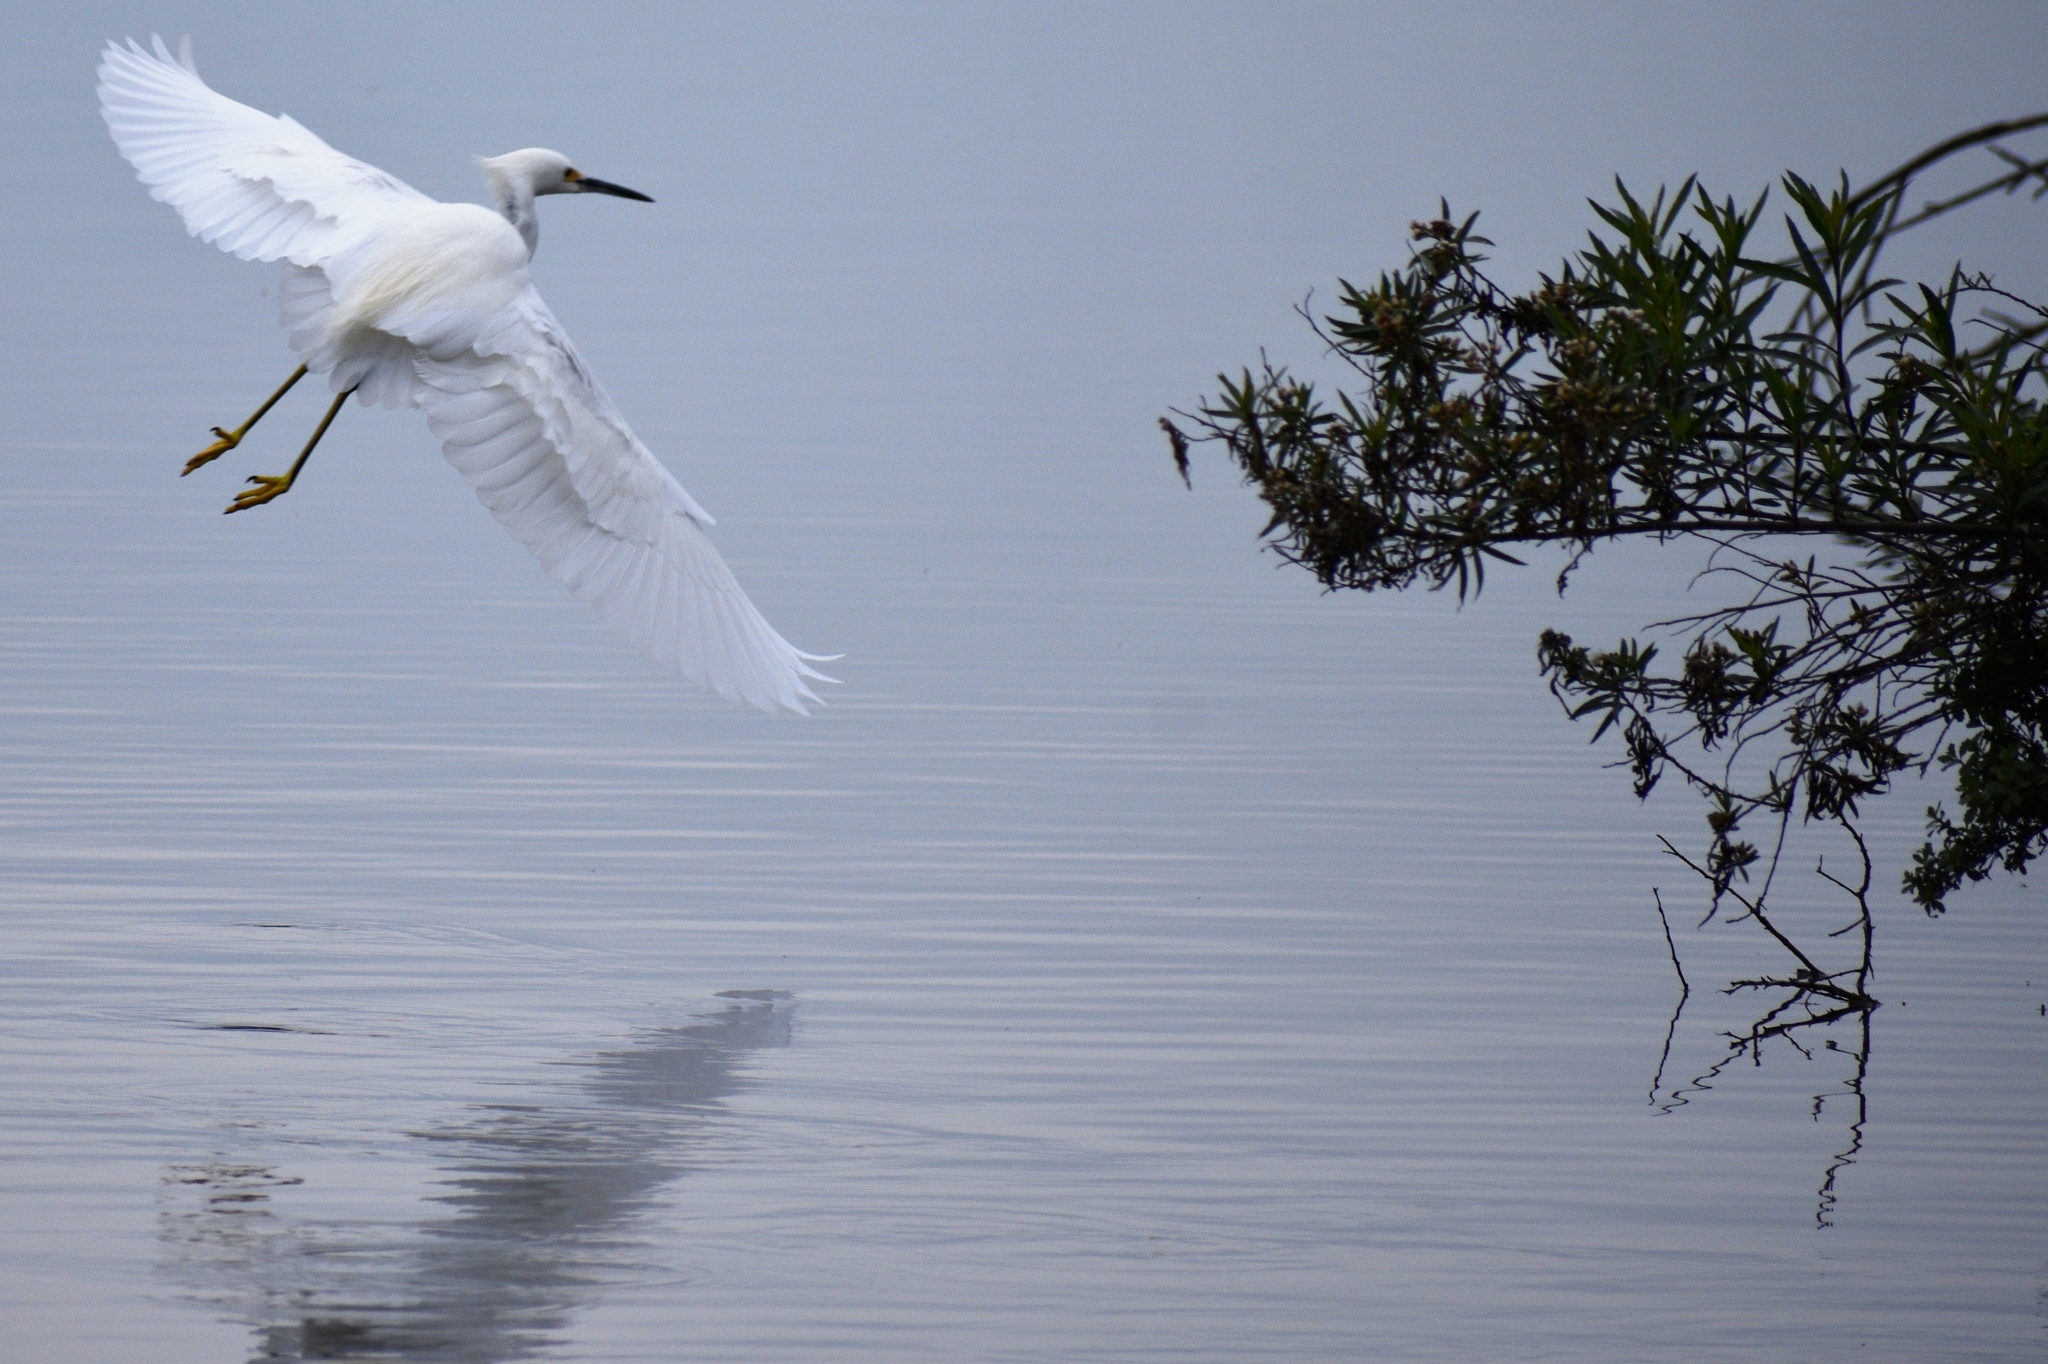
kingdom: Animalia
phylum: Chordata
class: Aves
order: Pelecaniformes
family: Ardeidae
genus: Egretta
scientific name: Egretta thula
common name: Snowy egret
